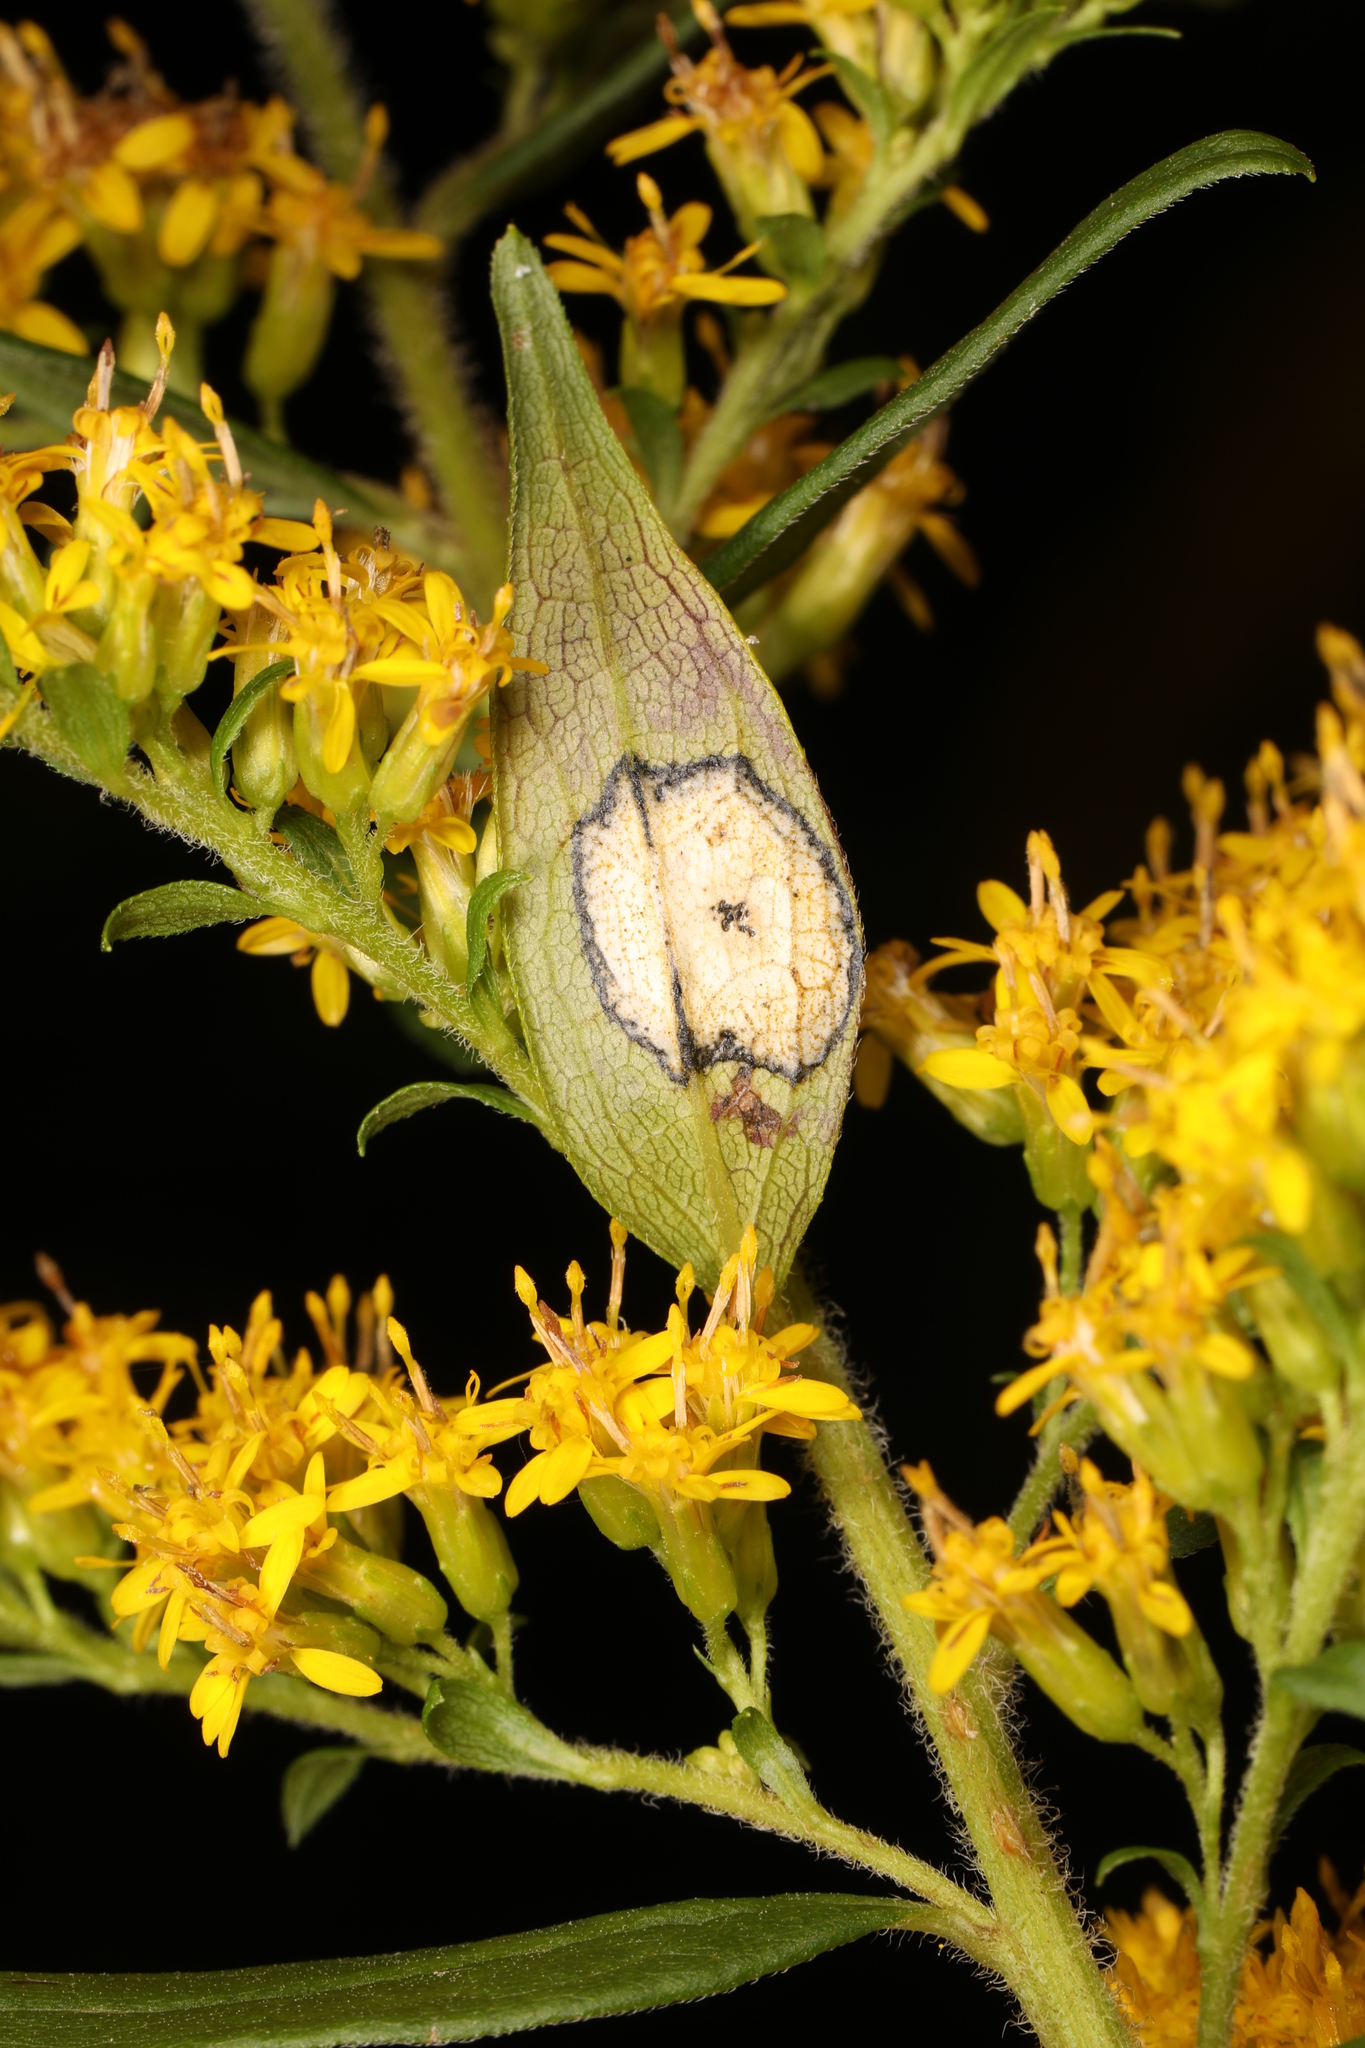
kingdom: Animalia
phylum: Arthropoda
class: Insecta
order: Diptera
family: Cecidomyiidae
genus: Asteromyia
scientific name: Asteromyia carbonifera
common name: Carbonifera goldenrod gall midge
